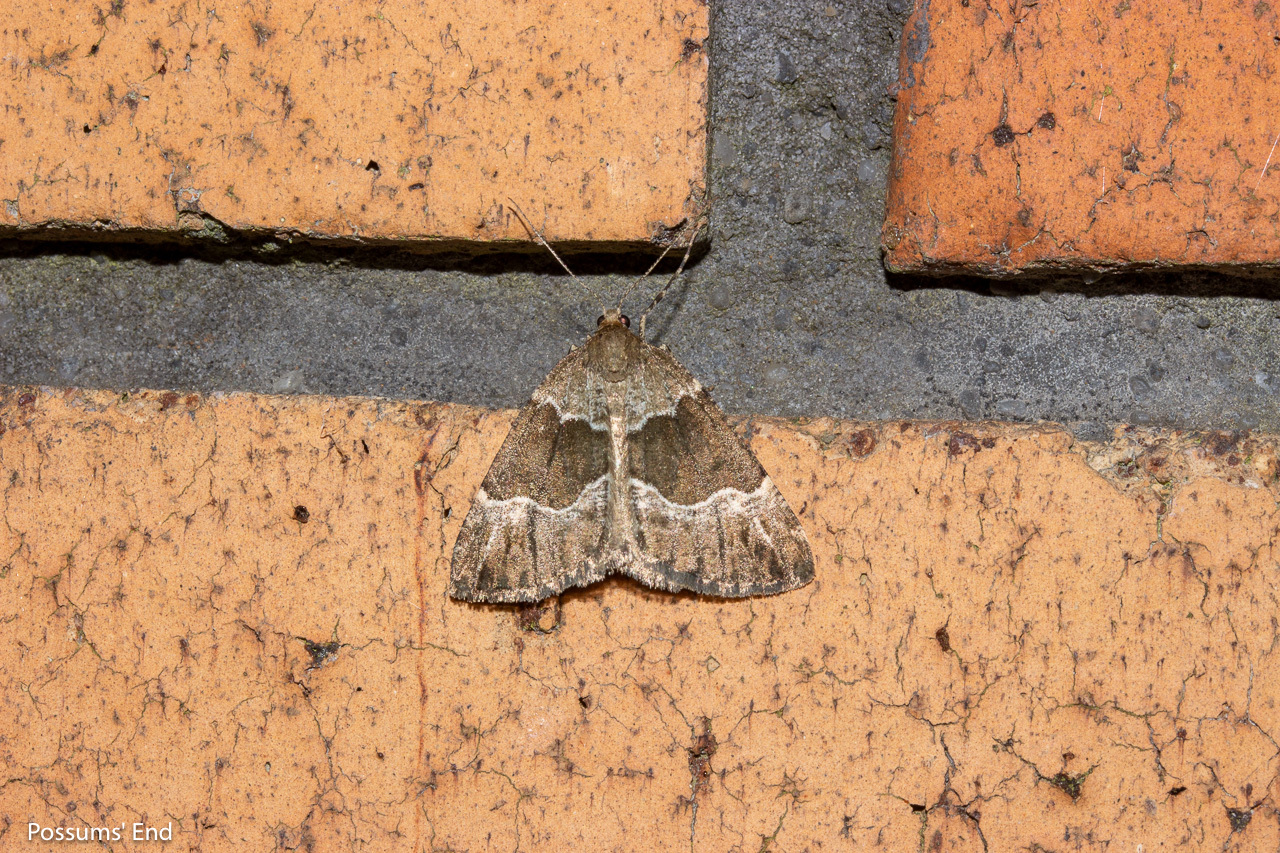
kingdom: Animalia
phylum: Arthropoda
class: Insecta
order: Lepidoptera
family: Geometridae
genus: Pseudocoremia
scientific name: Pseudocoremia
